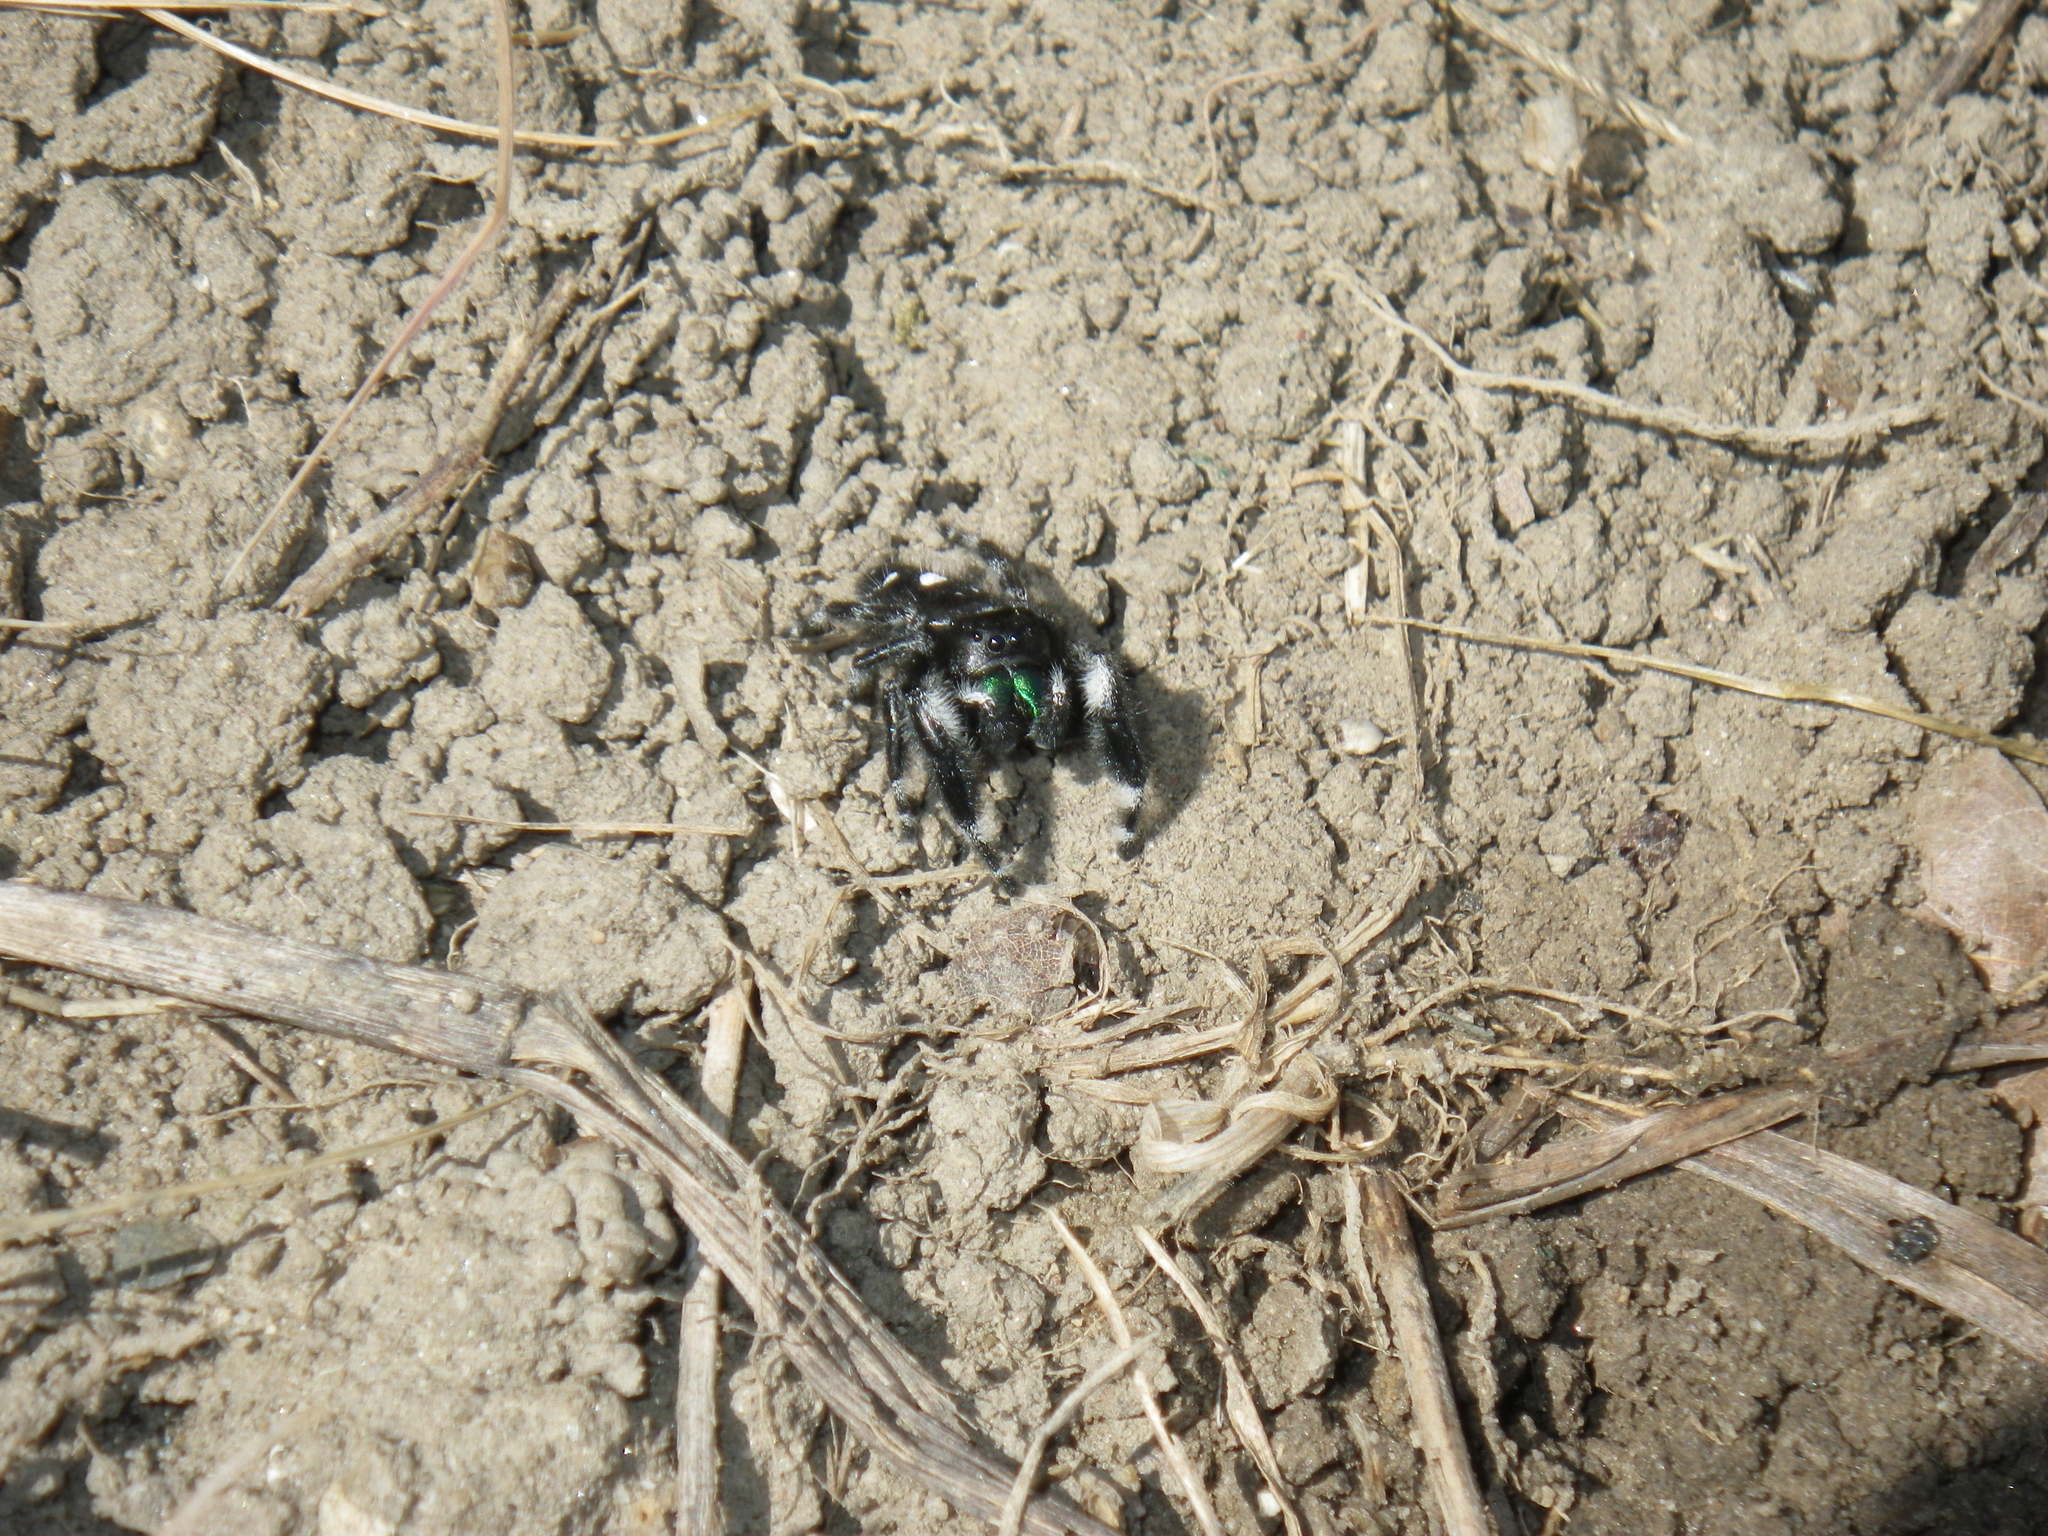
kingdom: Animalia
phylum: Arthropoda
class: Arachnida
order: Araneae
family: Salticidae
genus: Phidippus
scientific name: Phidippus audax
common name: Bold jumper
